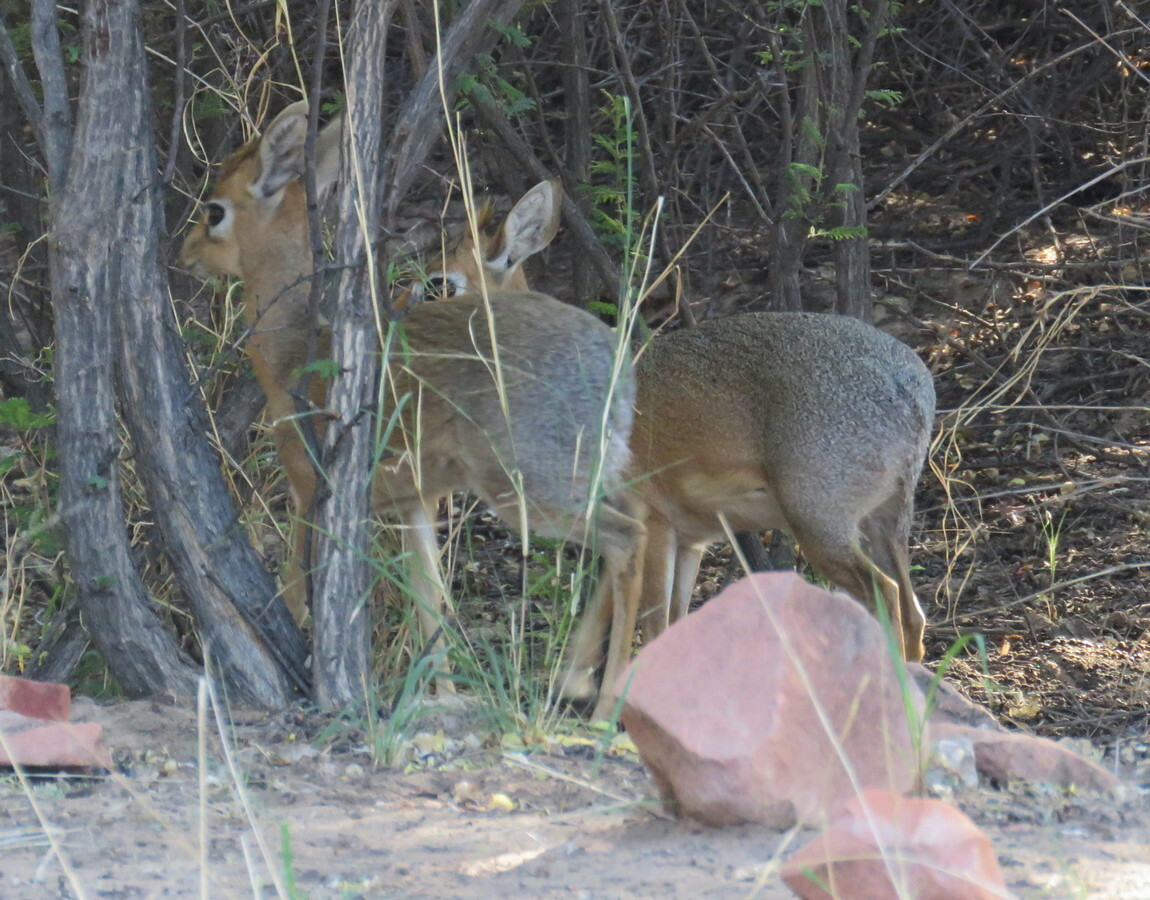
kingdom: Animalia
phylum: Chordata
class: Mammalia
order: Artiodactyla
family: Bovidae
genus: Madoqua
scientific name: Madoqua kirkii
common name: Kirk's dik-dik
